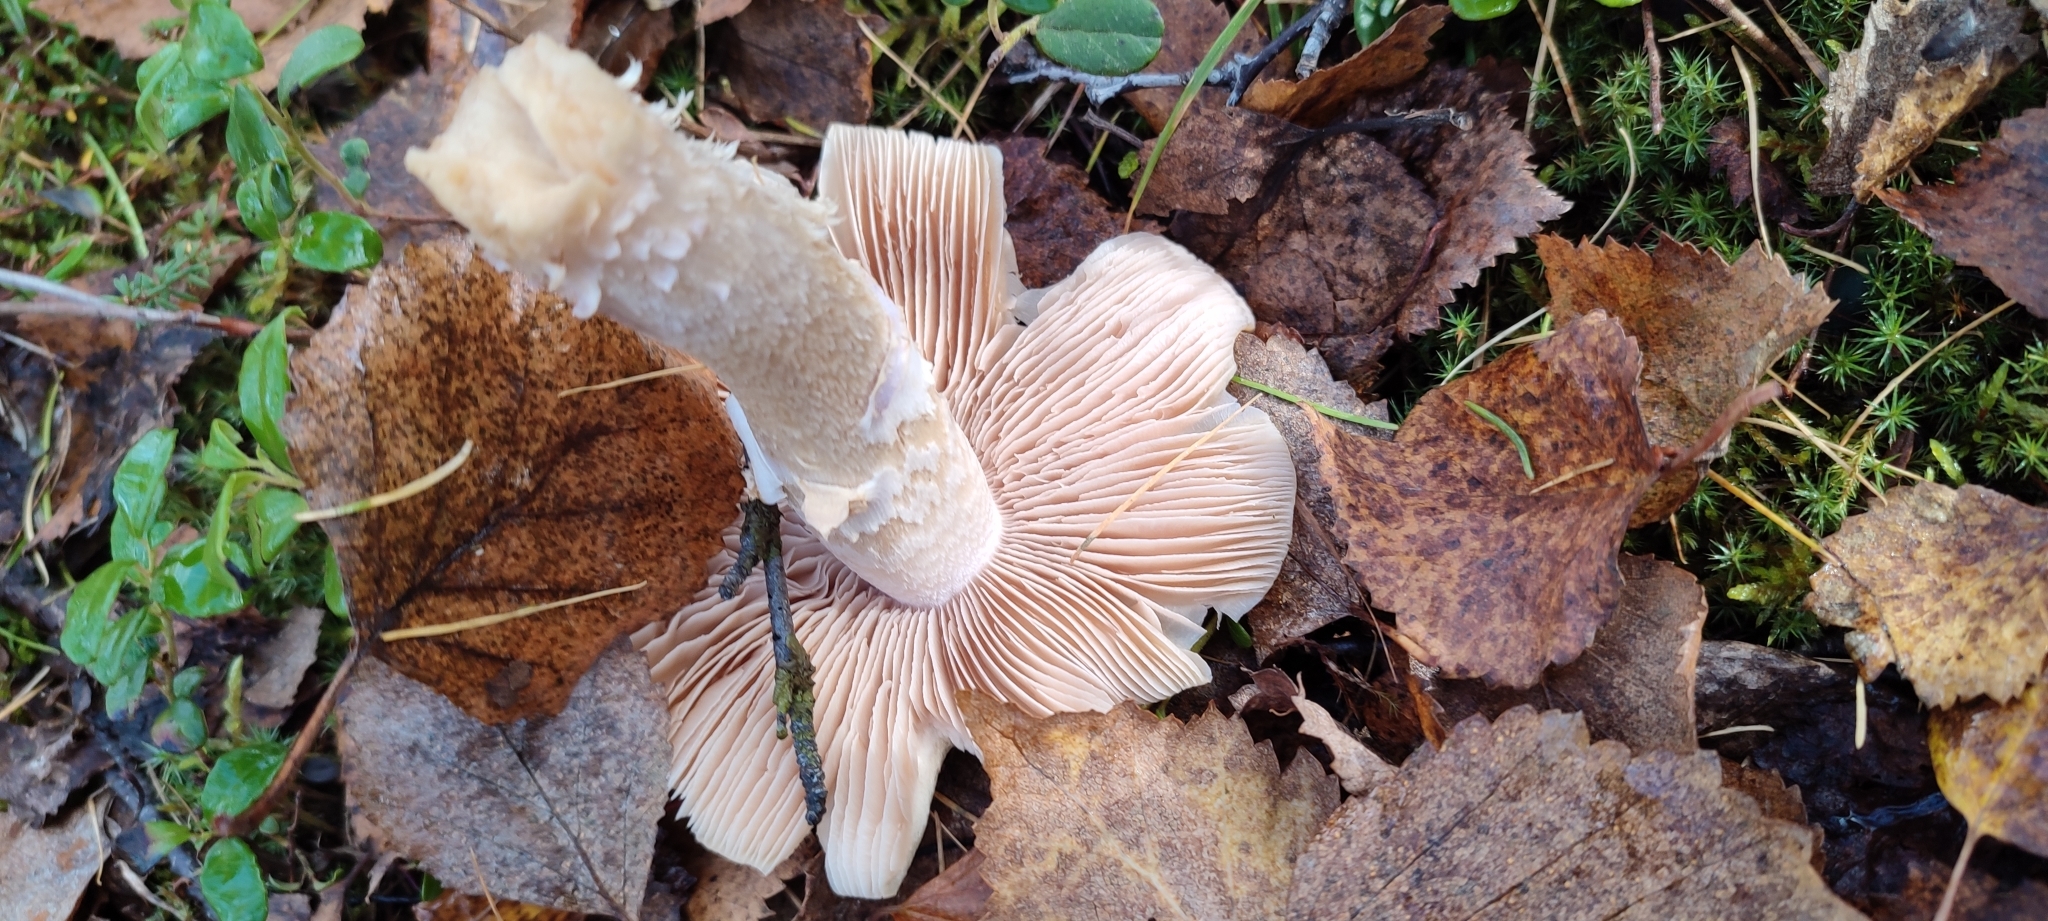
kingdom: Fungi
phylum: Basidiomycota
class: Agaricomycetes
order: Agaricales
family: Cortinariaceae
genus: Cortinarius
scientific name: Cortinarius caperatus
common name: The gypsy
